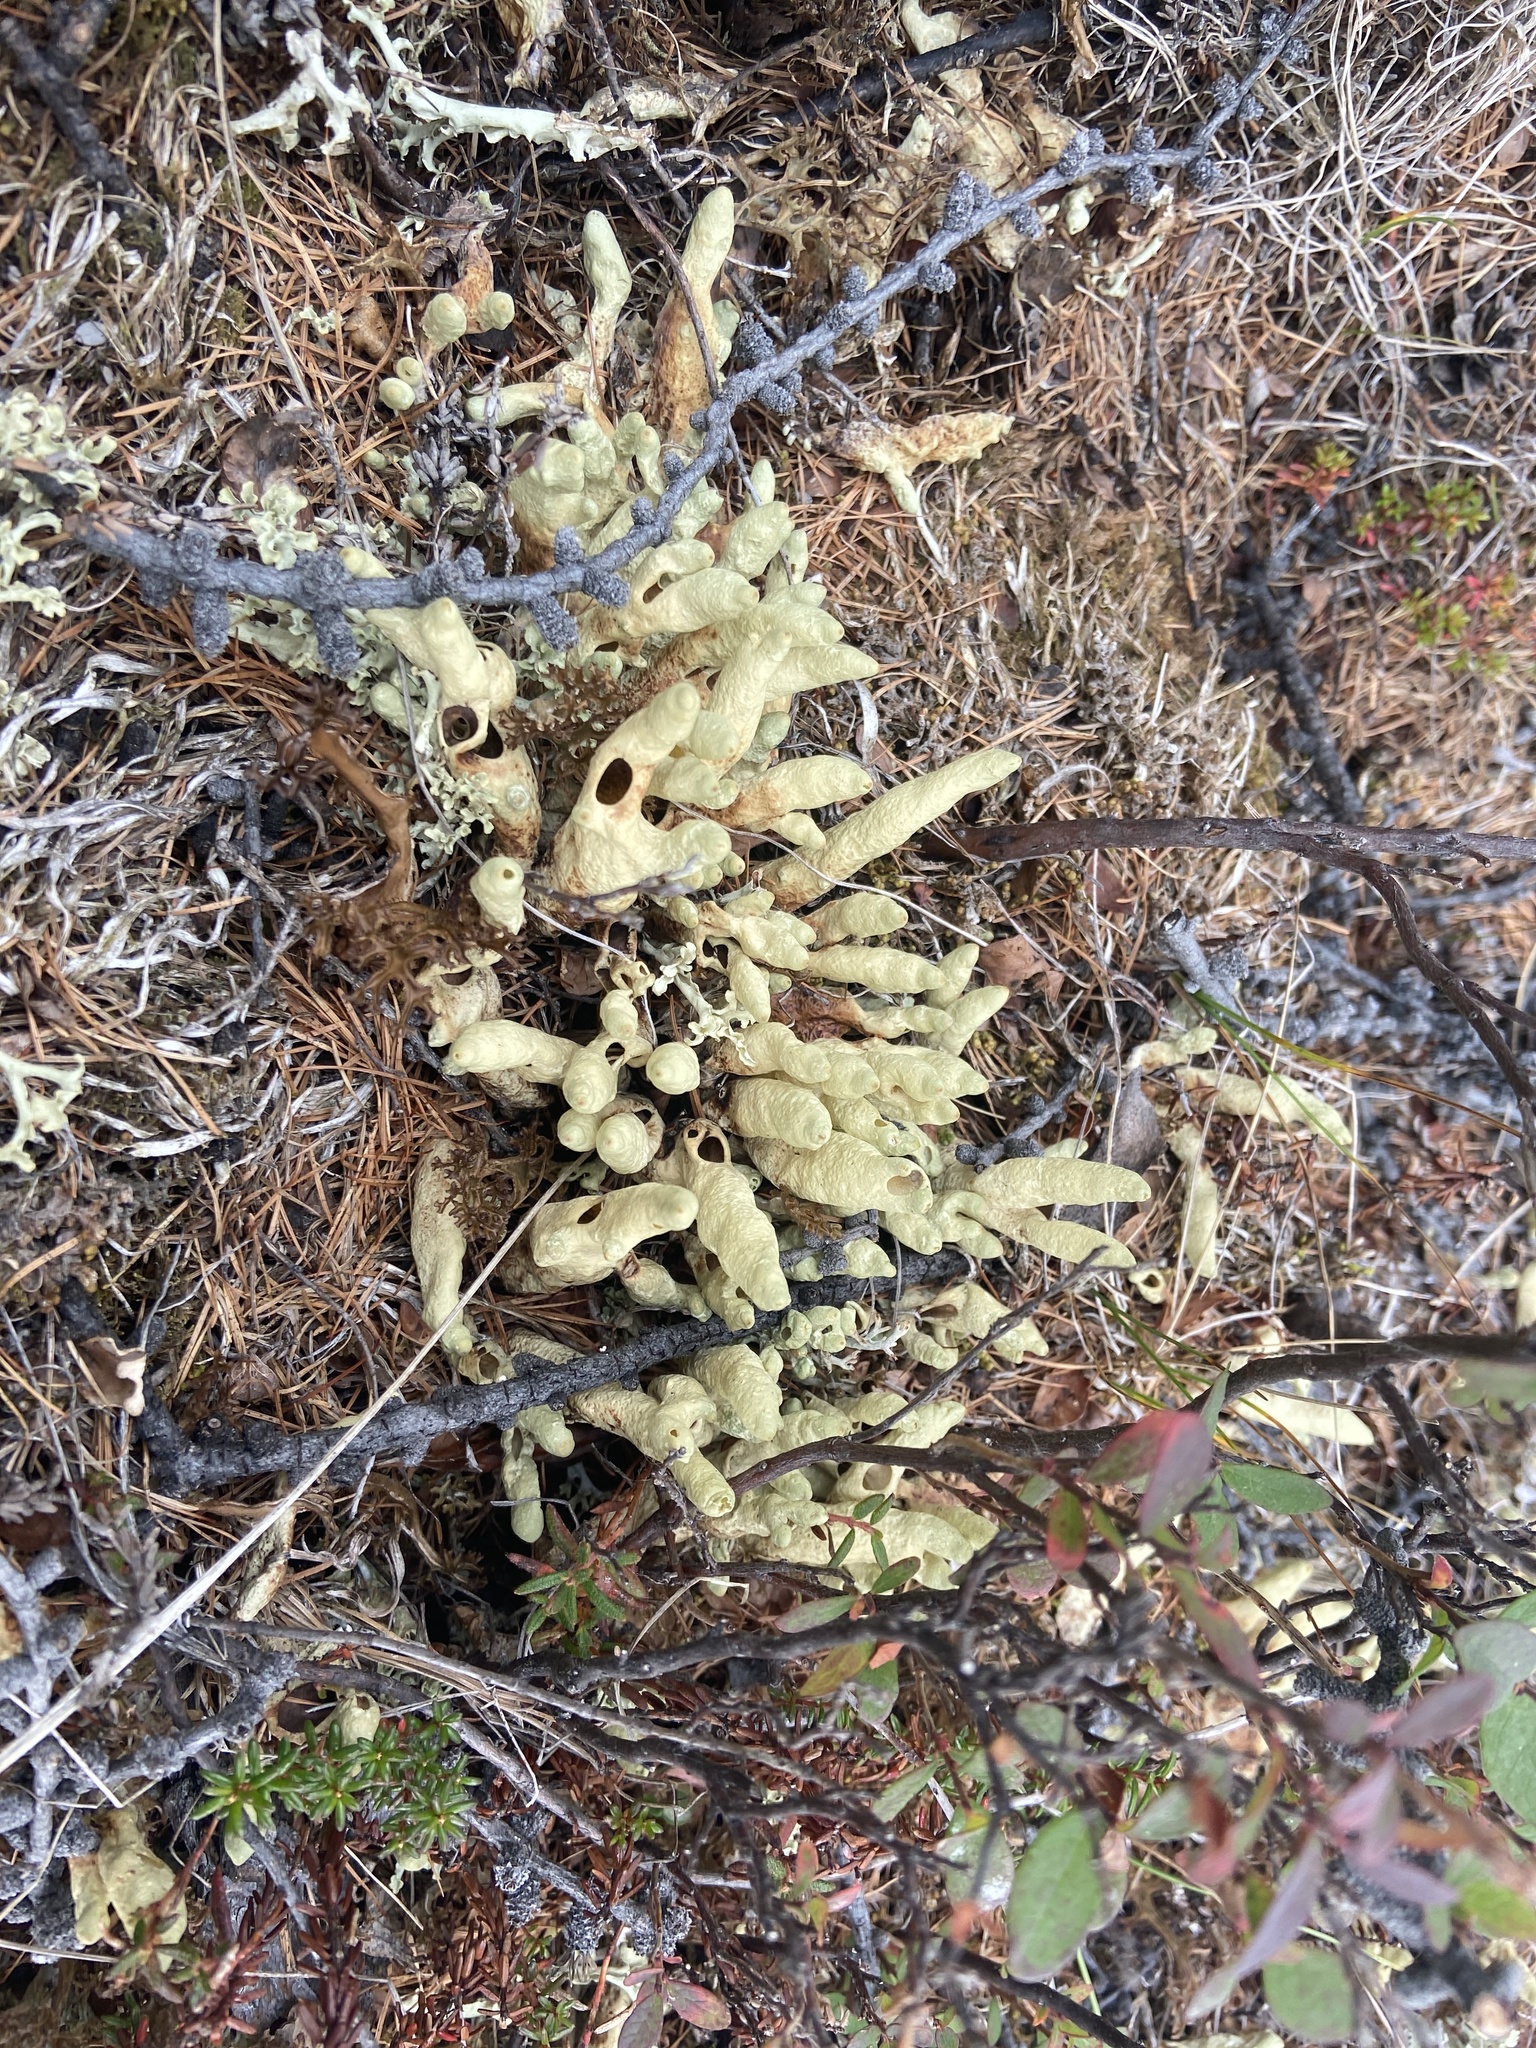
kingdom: Fungi
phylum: Ascomycota
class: Lecanoromycetes
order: Lecanorales
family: Parmeliaceae
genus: Dactylina
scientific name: Dactylina arctica
